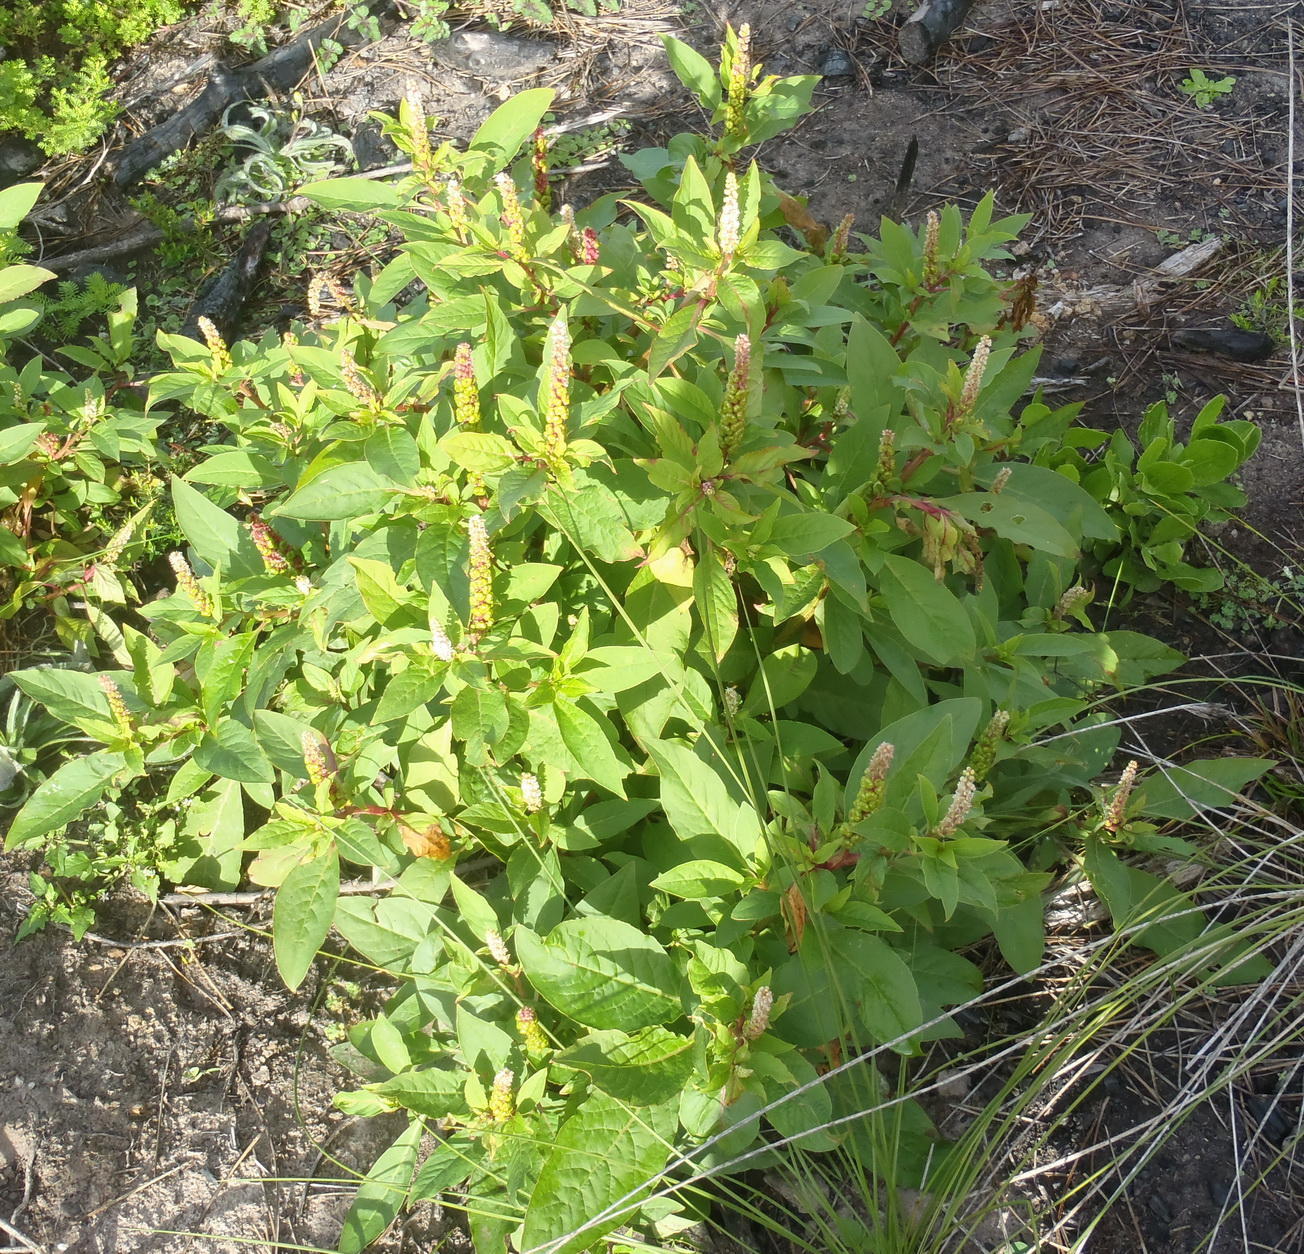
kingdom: Plantae
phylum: Tracheophyta
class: Magnoliopsida
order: Caryophyllales
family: Phytolaccaceae
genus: Phytolacca
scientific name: Phytolacca icosandra
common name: Button pokeweed
